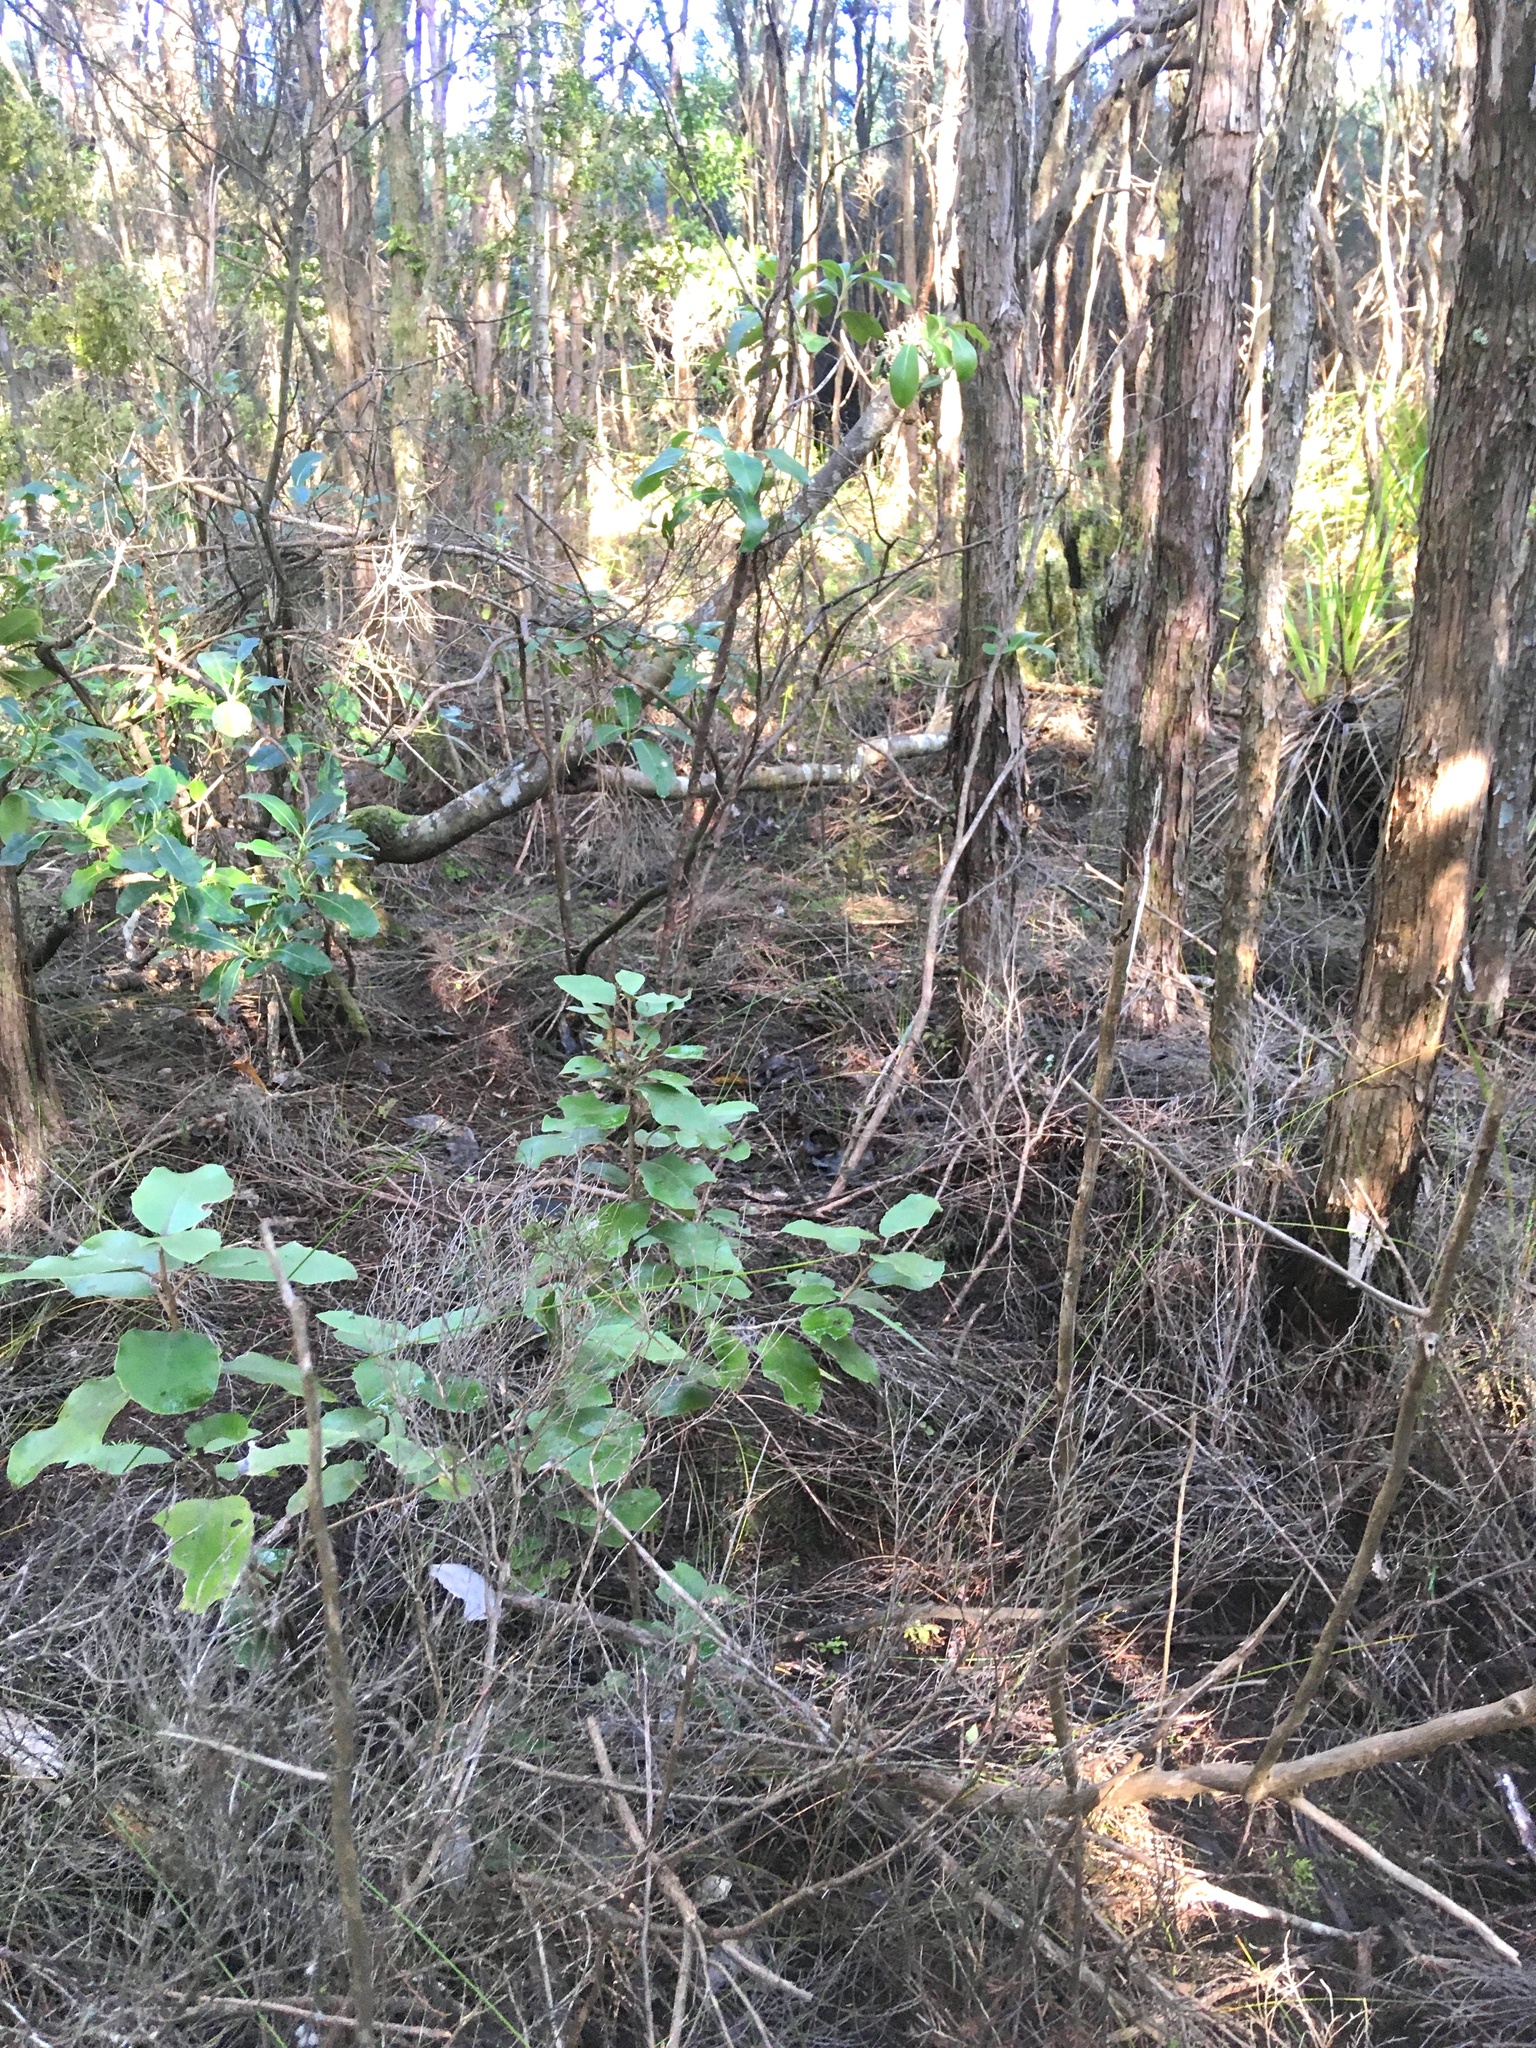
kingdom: Plantae
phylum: Tracheophyta
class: Magnoliopsida
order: Proteales
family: Proteaceae
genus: Hakea
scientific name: Hakea sericea
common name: Needle bush
